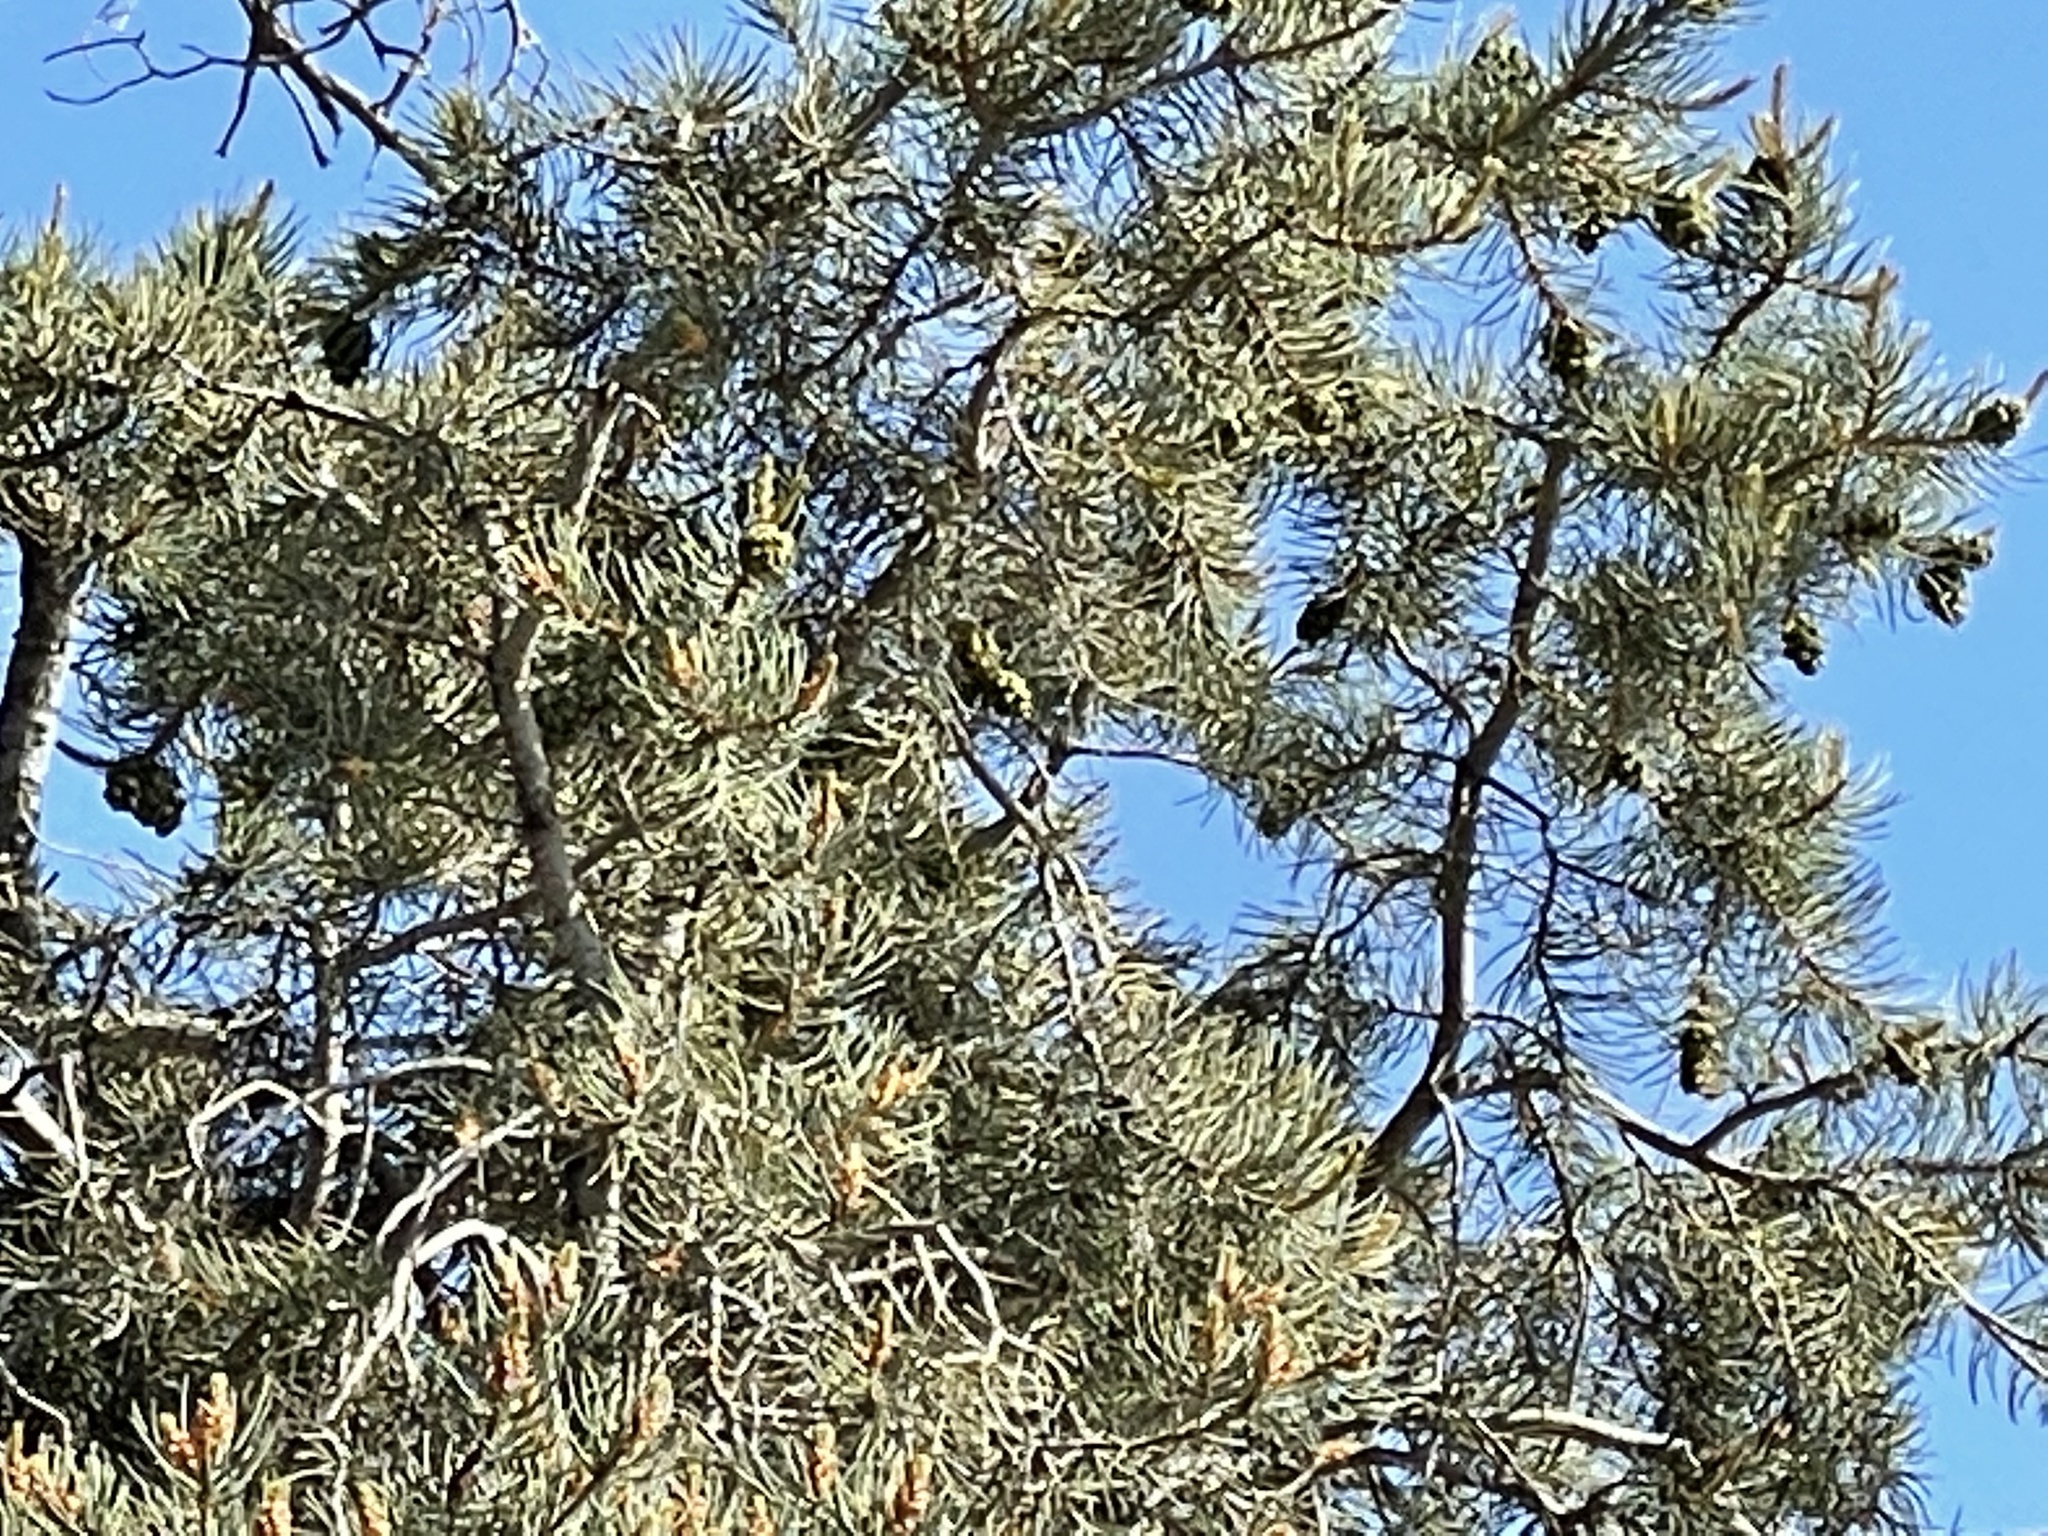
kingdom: Plantae
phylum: Tracheophyta
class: Pinopsida
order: Pinales
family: Pinaceae
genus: Pinus
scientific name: Pinus monophylla
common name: One-leaved nut pine
